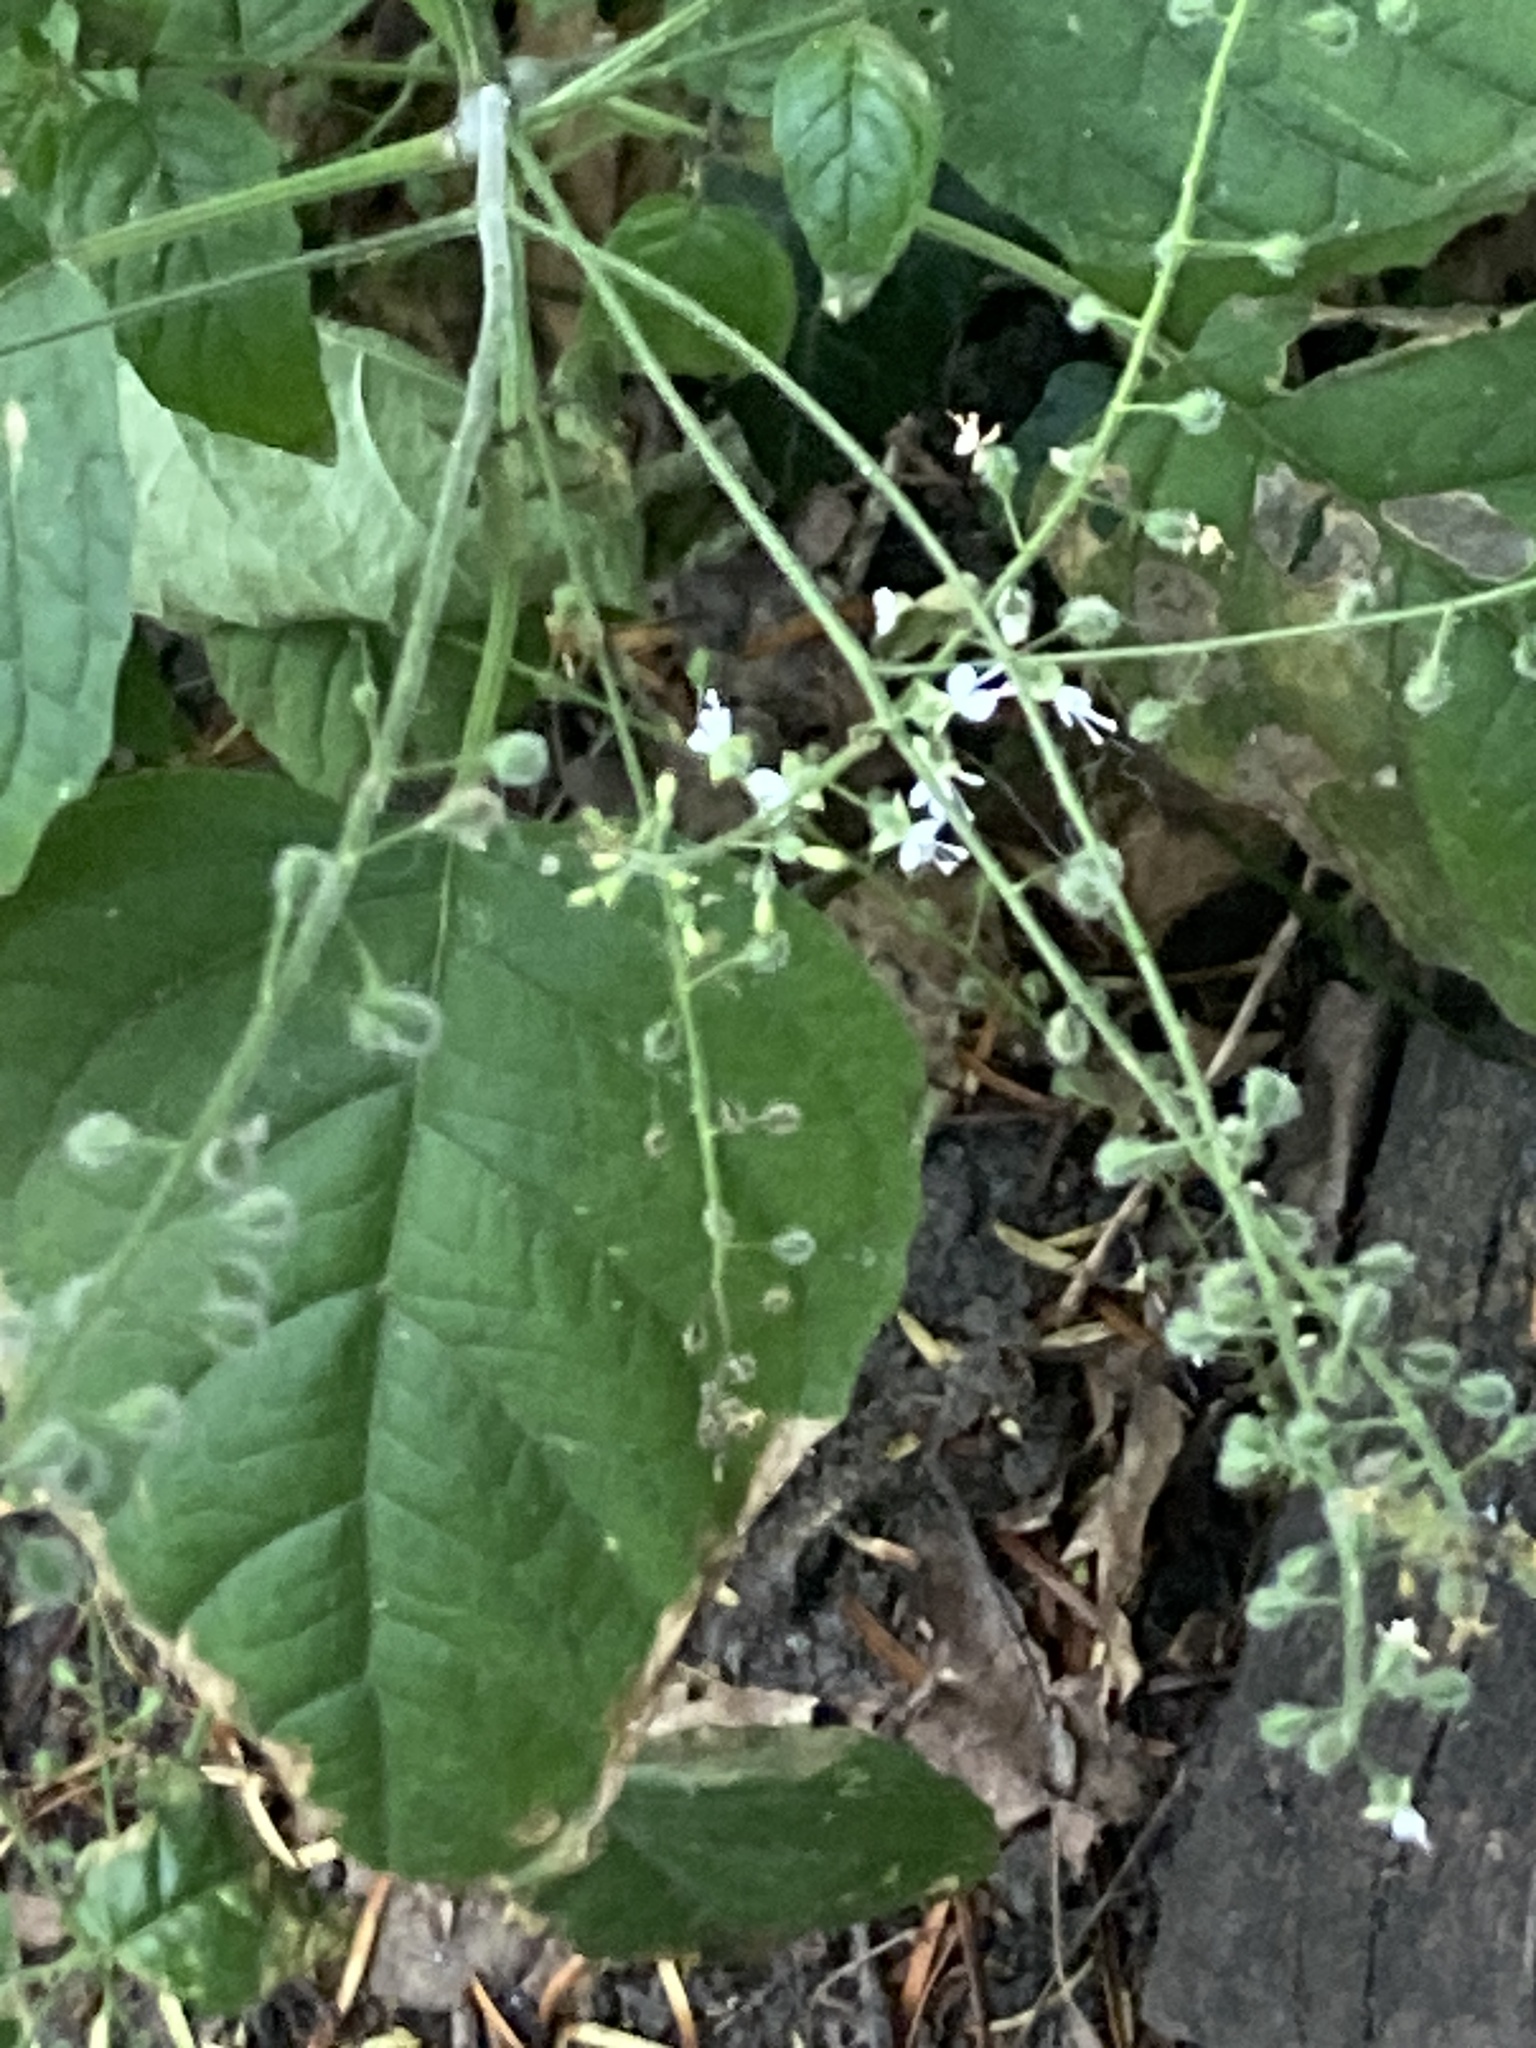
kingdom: Plantae
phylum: Tracheophyta
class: Magnoliopsida
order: Myrtales
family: Onagraceae
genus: Circaea
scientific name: Circaea lutetiana
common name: Enchanter's-nightshade
